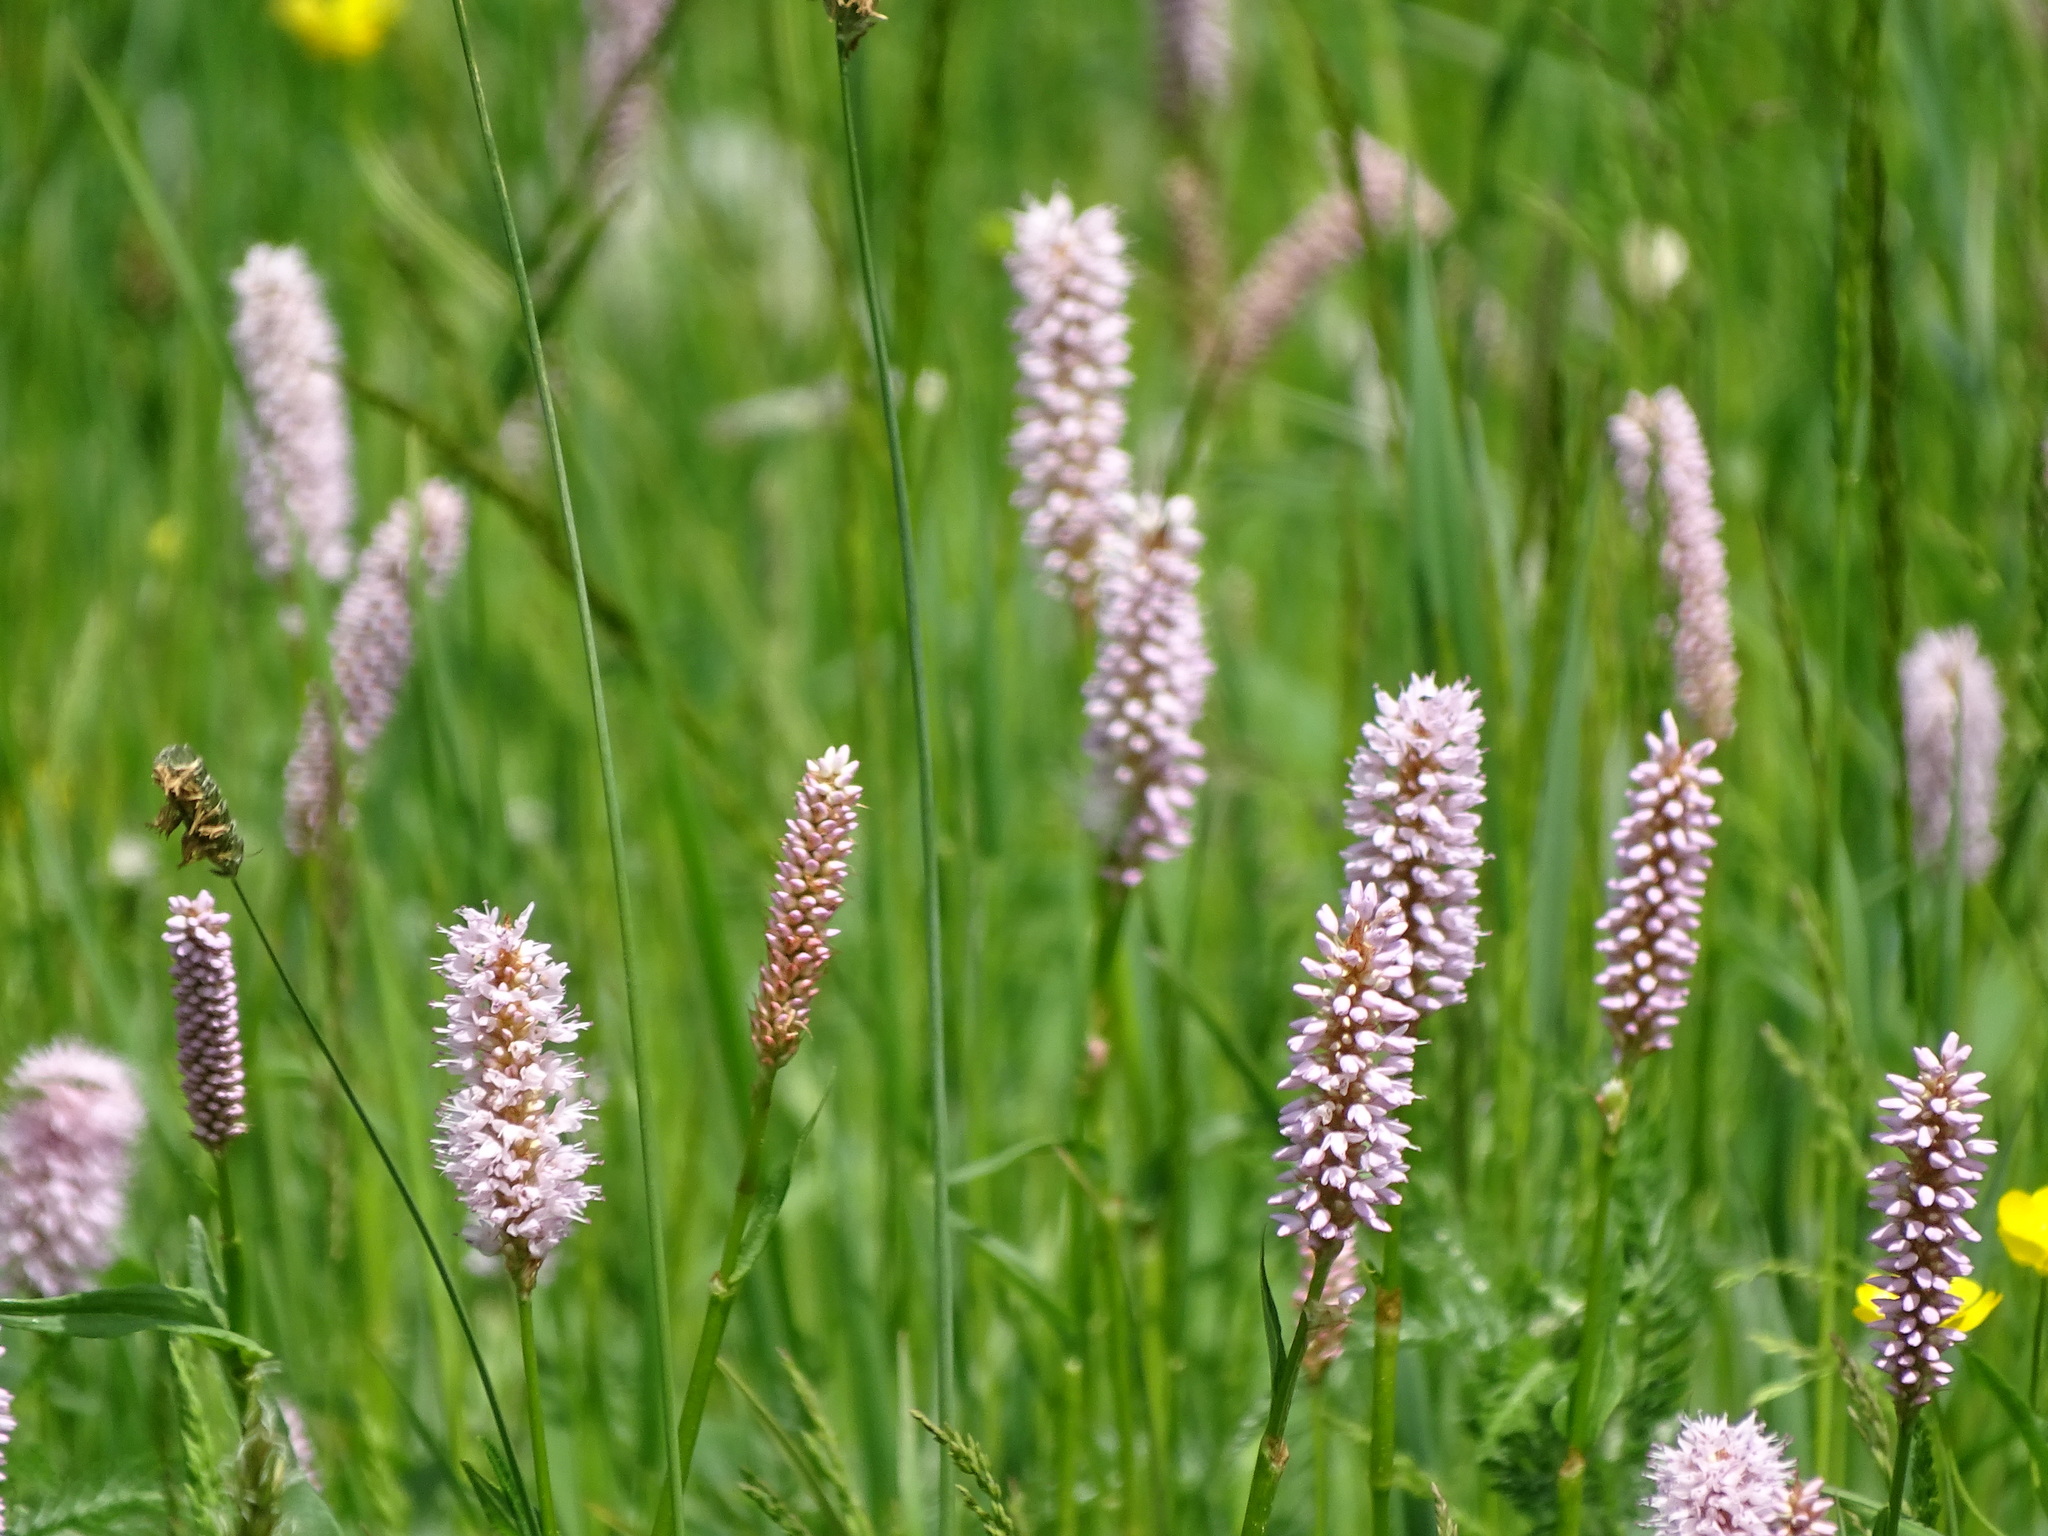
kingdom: Plantae
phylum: Tracheophyta
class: Magnoliopsida
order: Caryophyllales
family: Polygonaceae
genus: Bistorta
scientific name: Bistorta officinalis
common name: Common bistort
